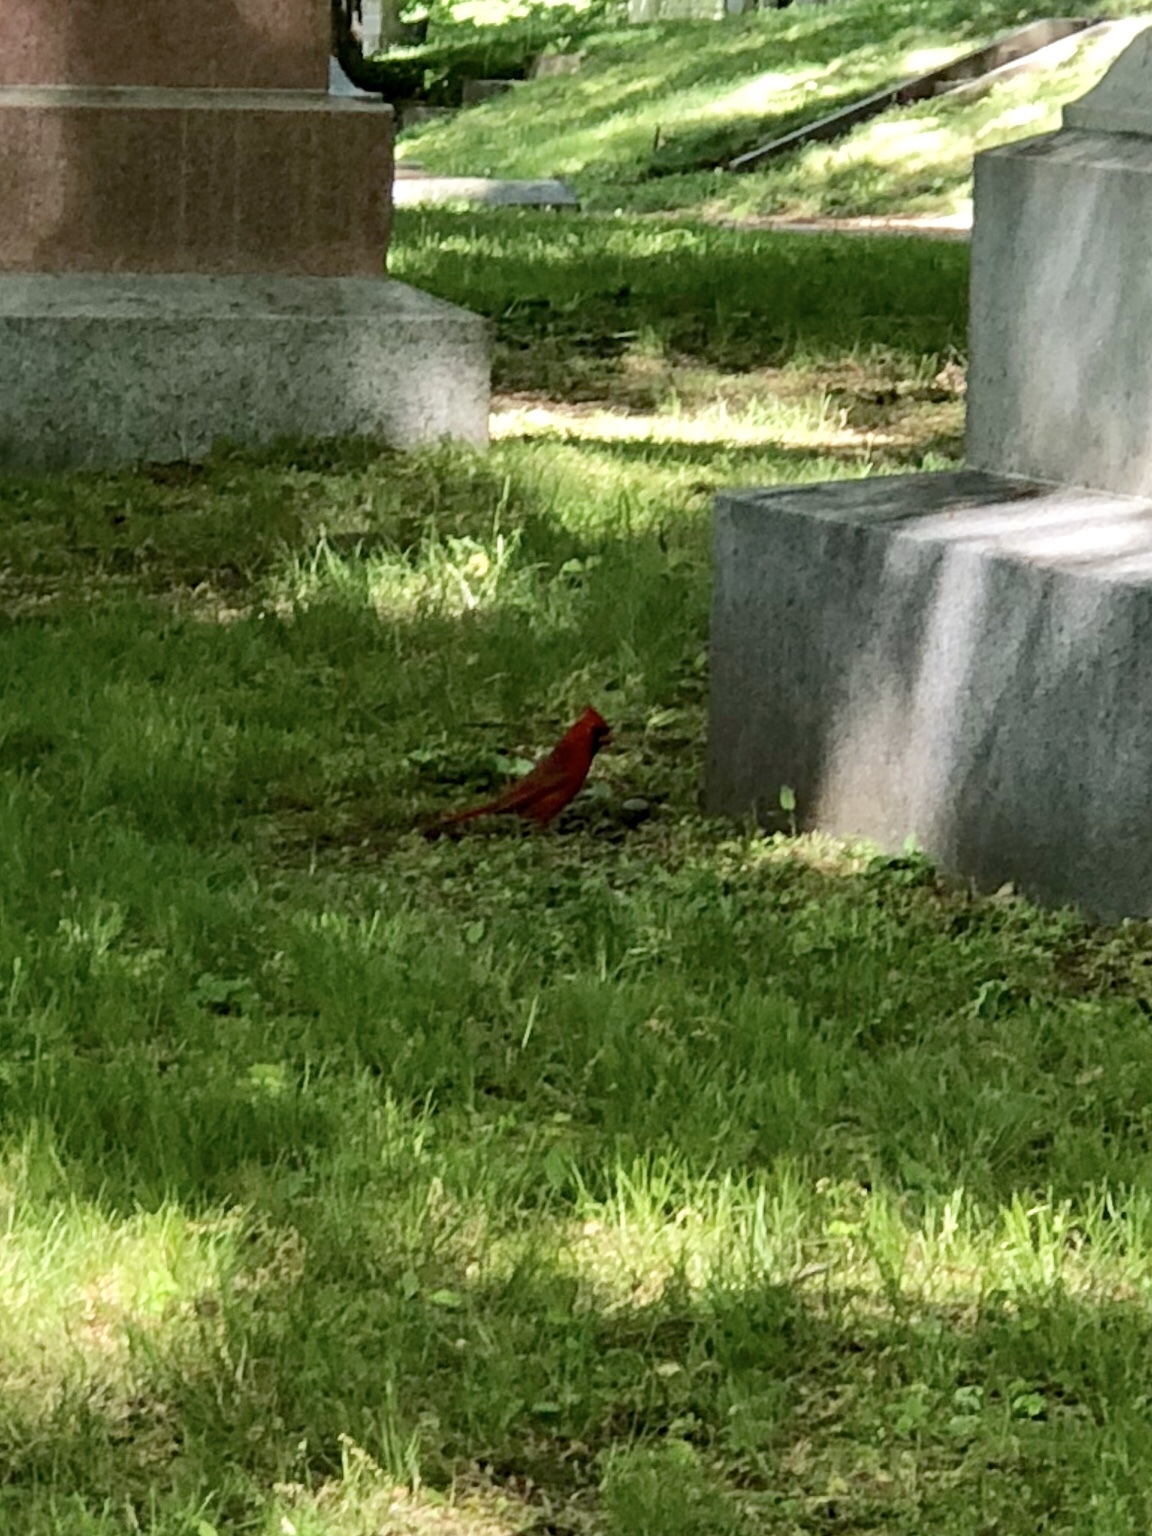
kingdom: Animalia
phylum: Chordata
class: Aves
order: Passeriformes
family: Cardinalidae
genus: Cardinalis
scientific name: Cardinalis cardinalis
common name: Northern cardinal
